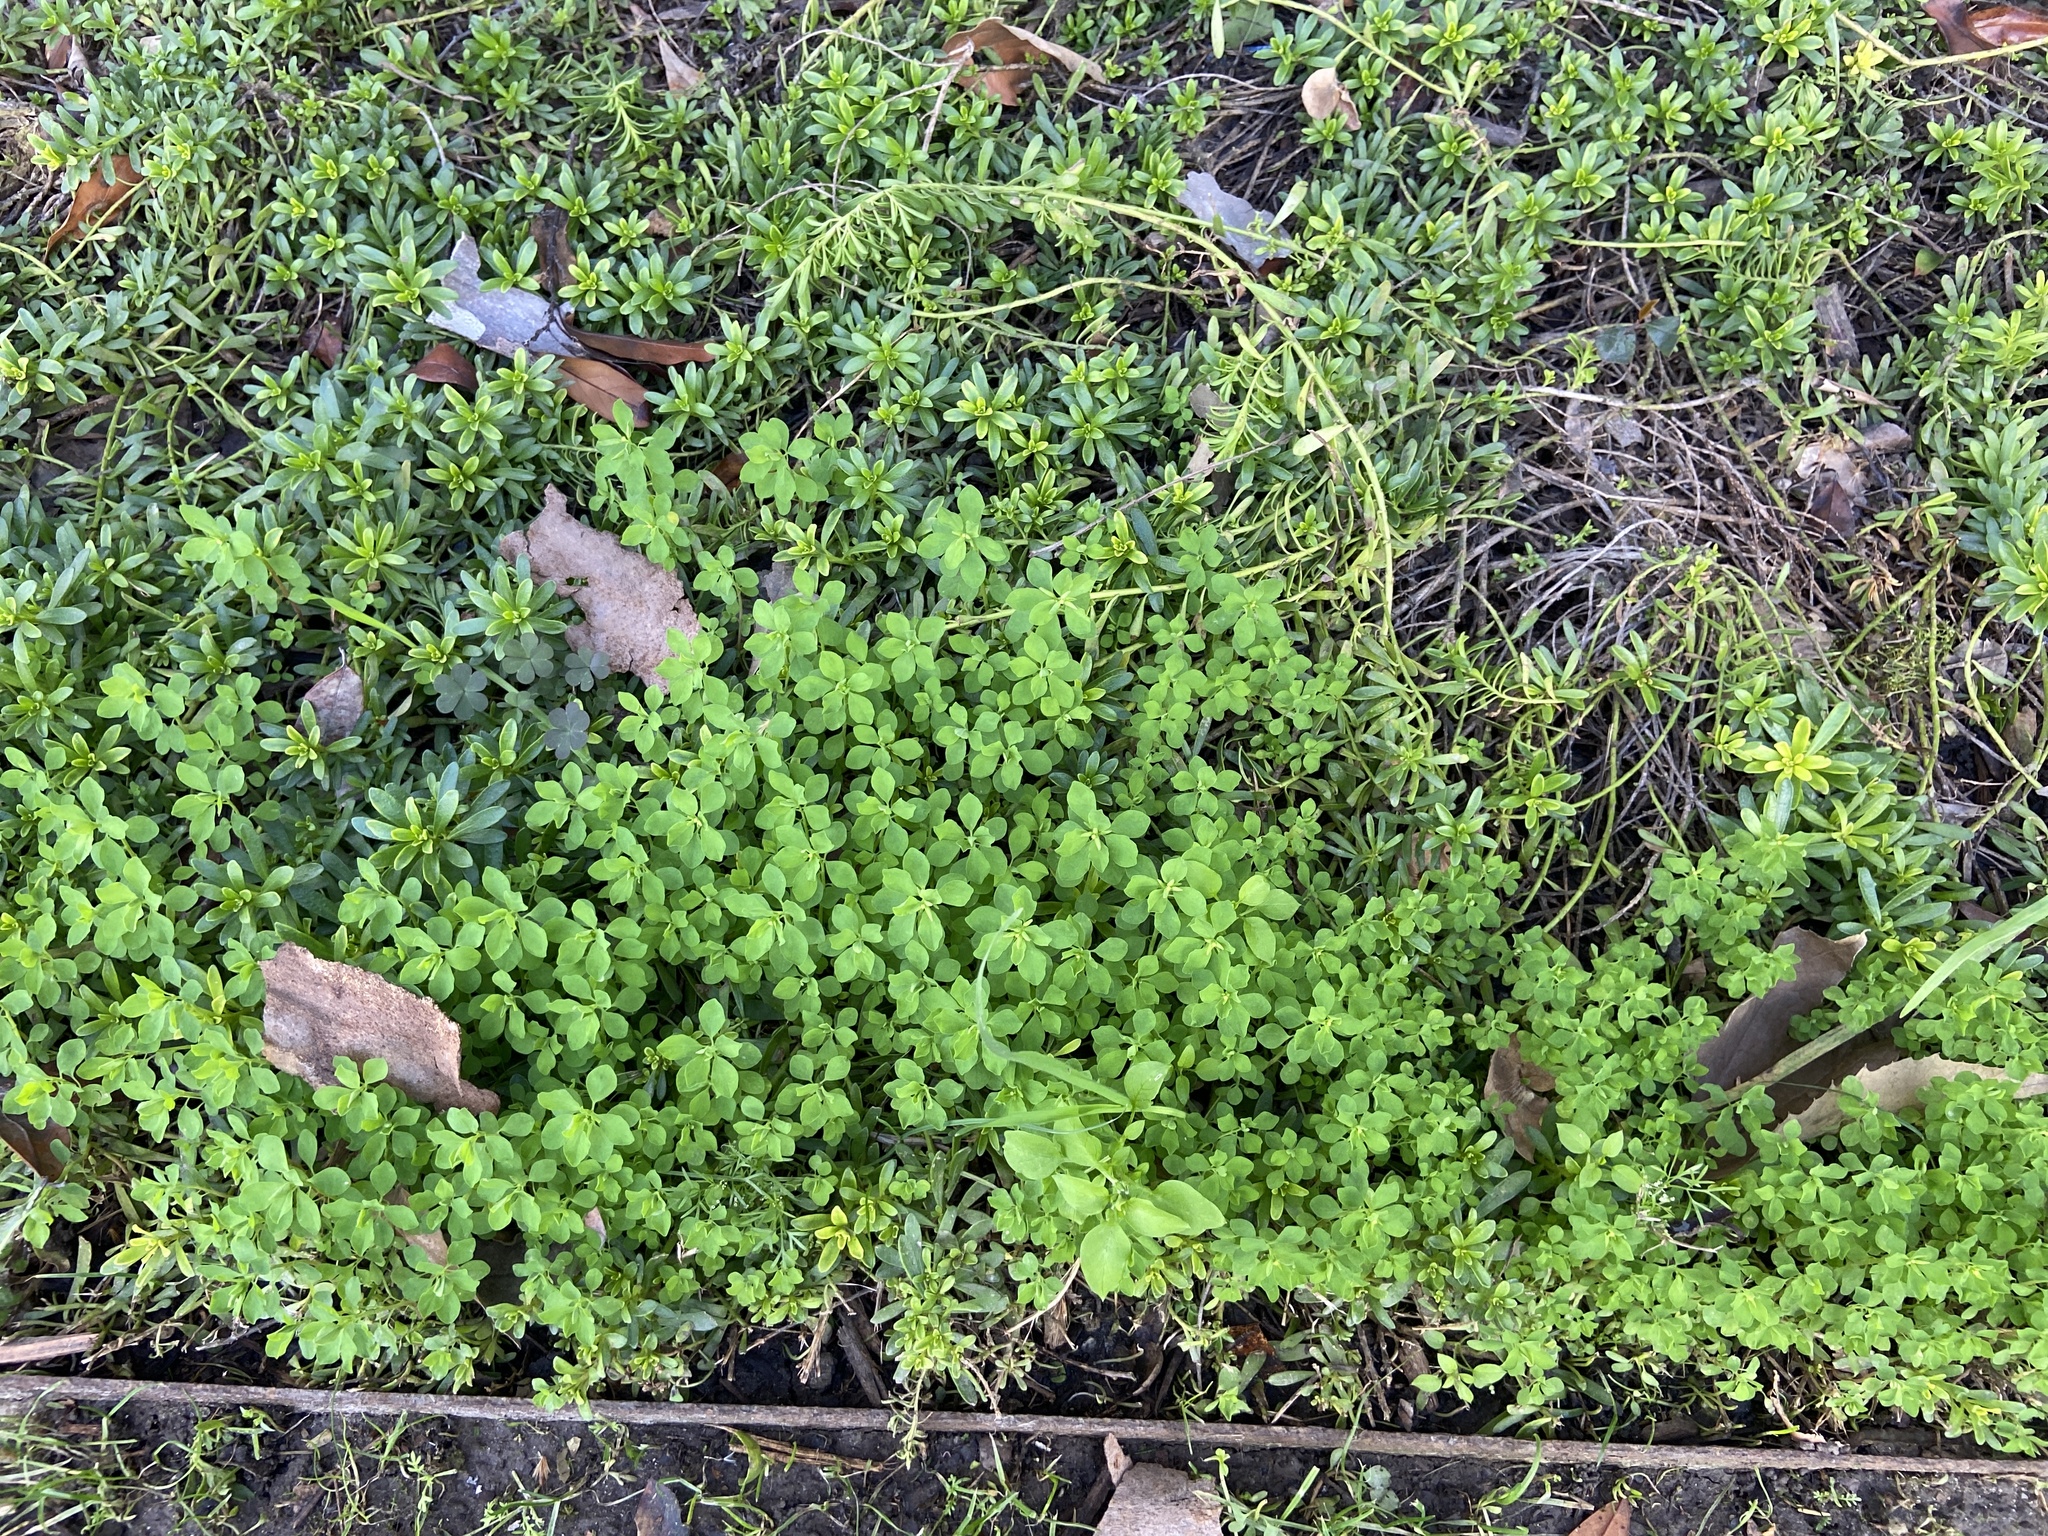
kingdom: Plantae
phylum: Tracheophyta
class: Magnoliopsida
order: Malpighiales
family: Euphorbiaceae
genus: Euphorbia
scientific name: Euphorbia peplus
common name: Petty spurge
